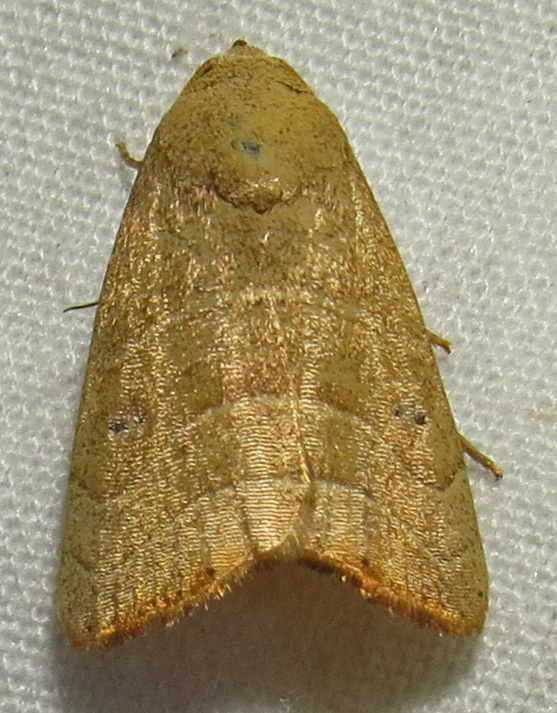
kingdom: Animalia
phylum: Arthropoda
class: Insecta
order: Lepidoptera
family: Noctuidae
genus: Bagisara
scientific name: Bagisara repanda
